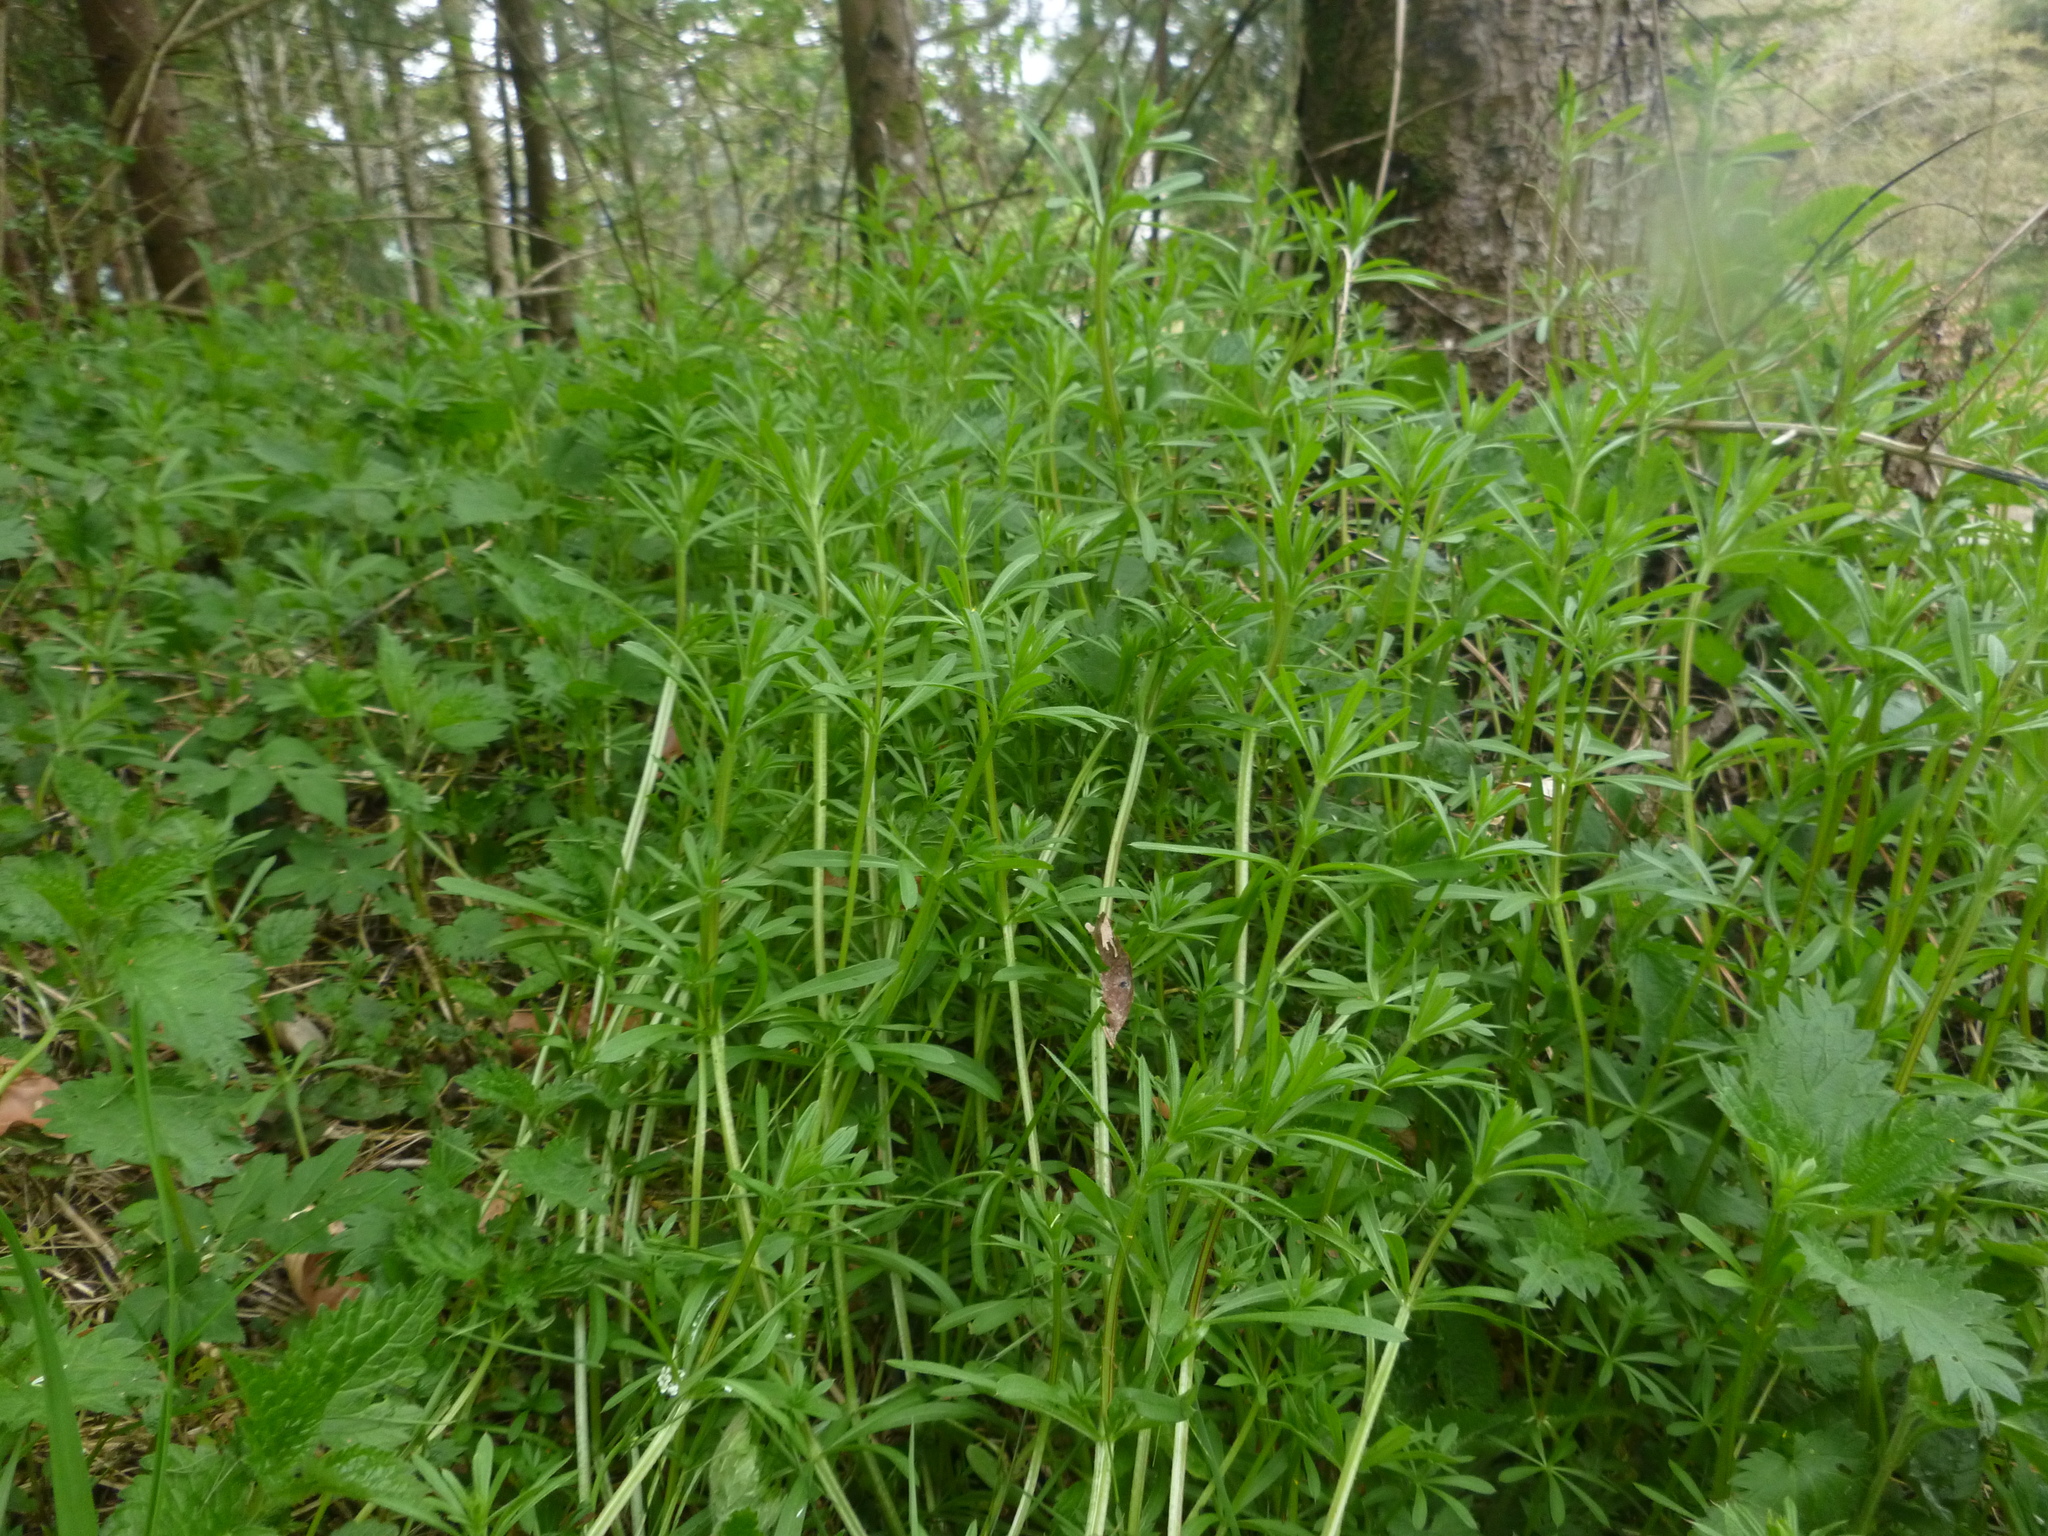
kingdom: Plantae
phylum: Tracheophyta
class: Magnoliopsida
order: Gentianales
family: Rubiaceae
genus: Galium
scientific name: Galium aparine
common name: Cleavers
